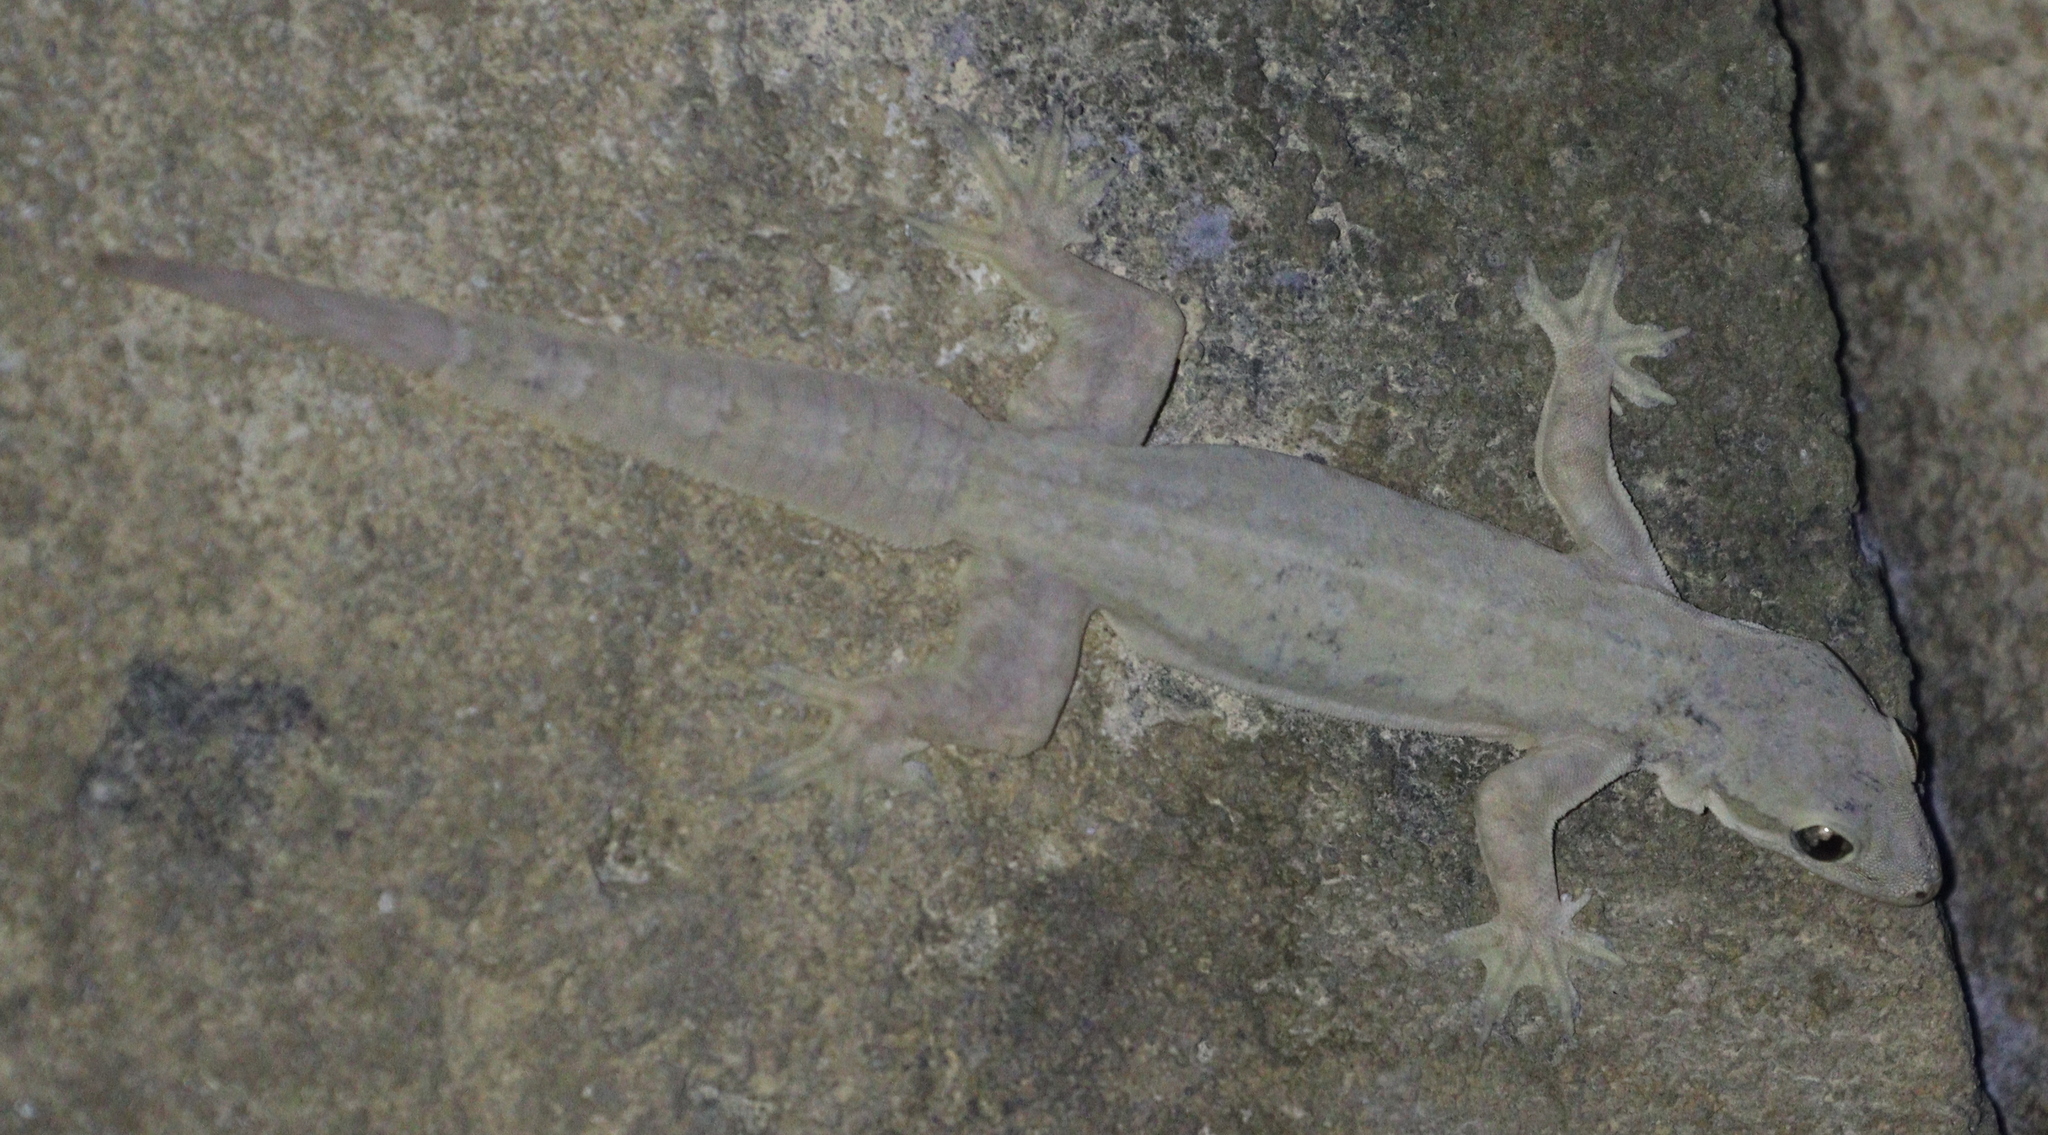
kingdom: Animalia
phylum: Chordata
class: Squamata
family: Gekkonidae
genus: Hemidactylus
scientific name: Hemidactylus platyurus
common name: Flat-tailed house gecko
